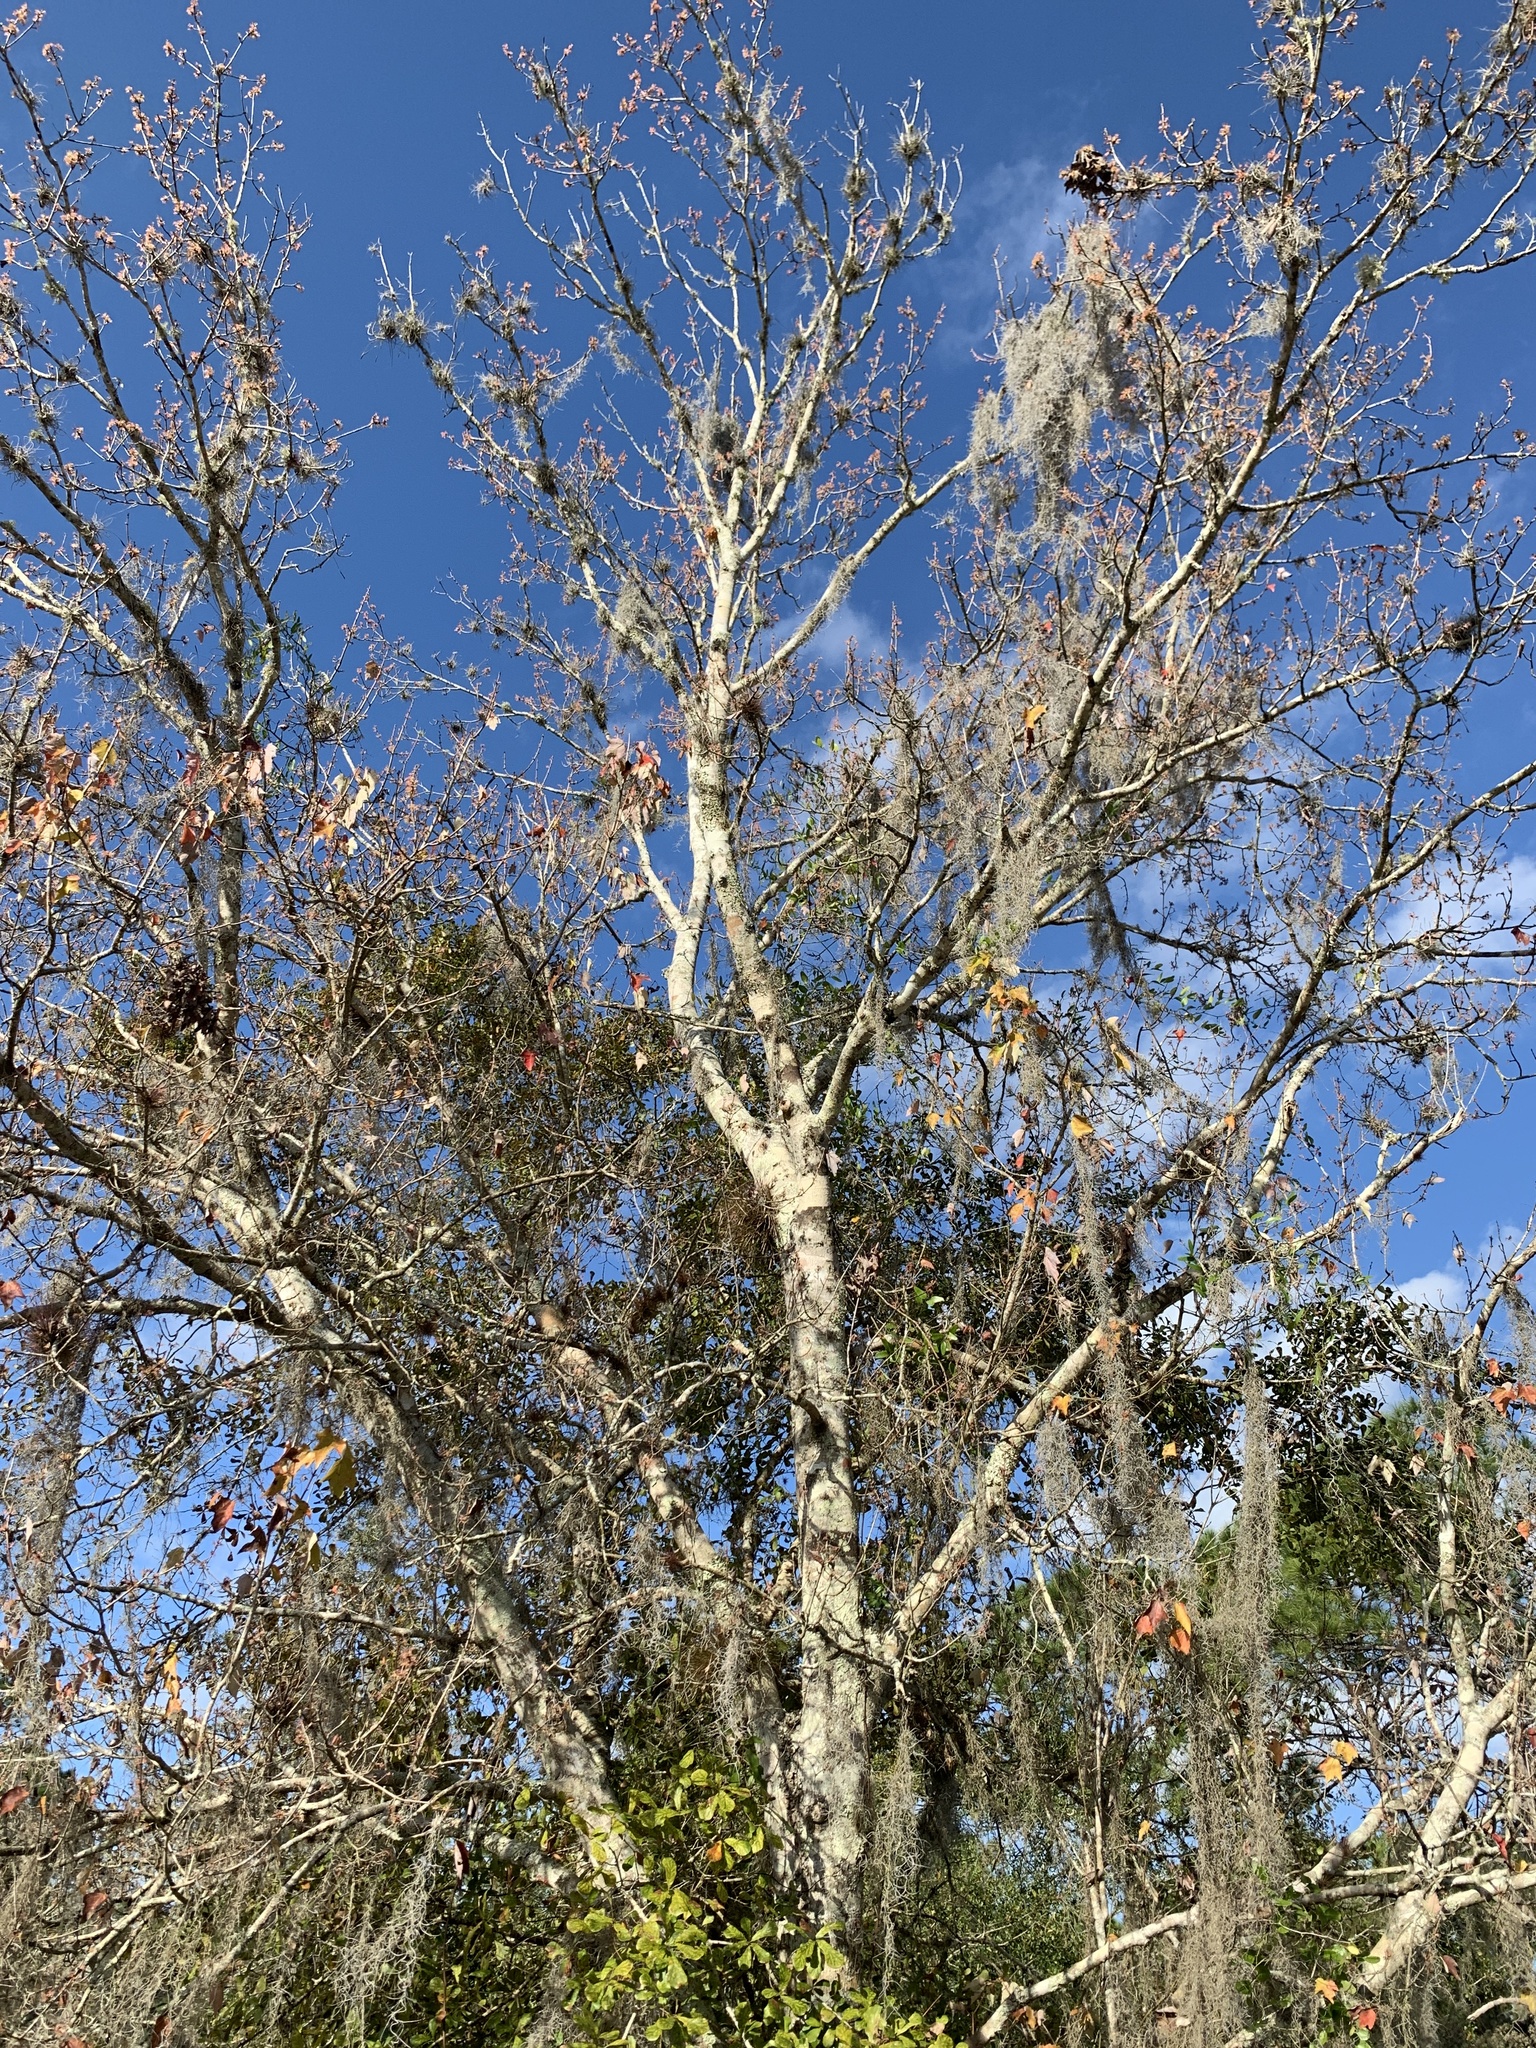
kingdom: Plantae
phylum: Tracheophyta
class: Magnoliopsida
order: Sapindales
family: Sapindaceae
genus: Acer
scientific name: Acer rubrum
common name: Red maple
